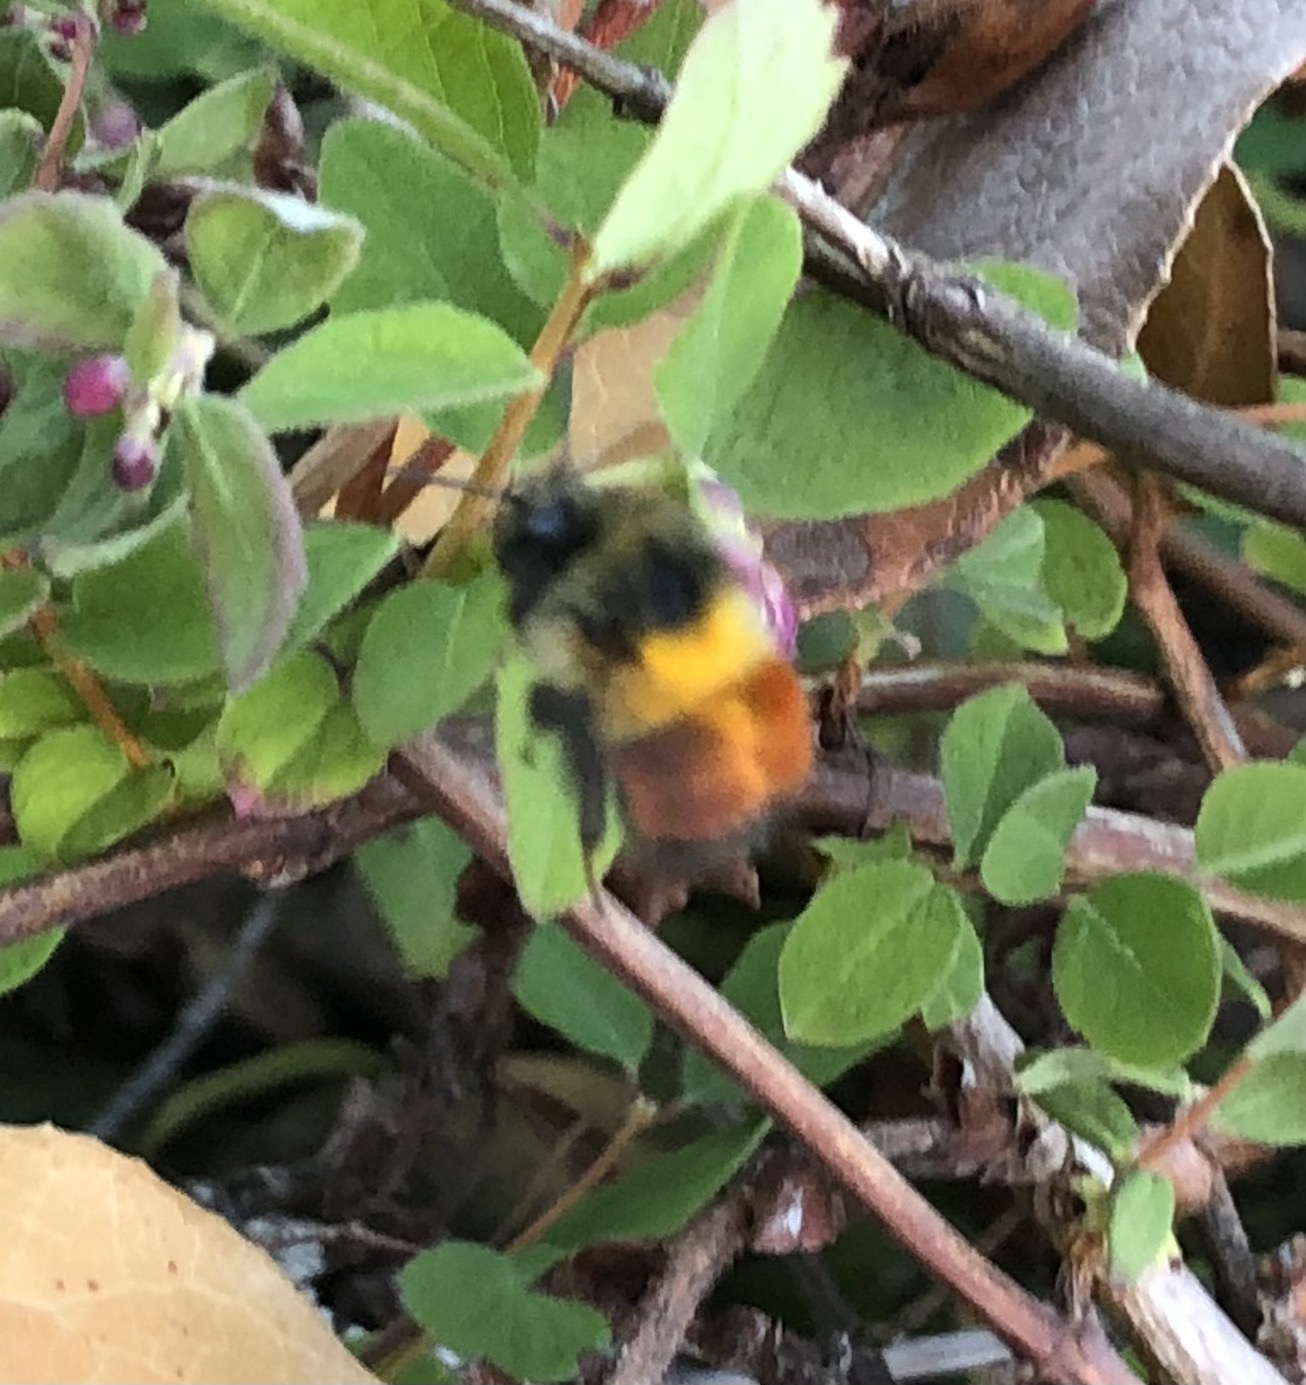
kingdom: Animalia
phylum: Arthropoda
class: Insecta
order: Hymenoptera
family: Apidae
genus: Bombus
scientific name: Bombus melanopygus
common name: Black tail bumble bee
